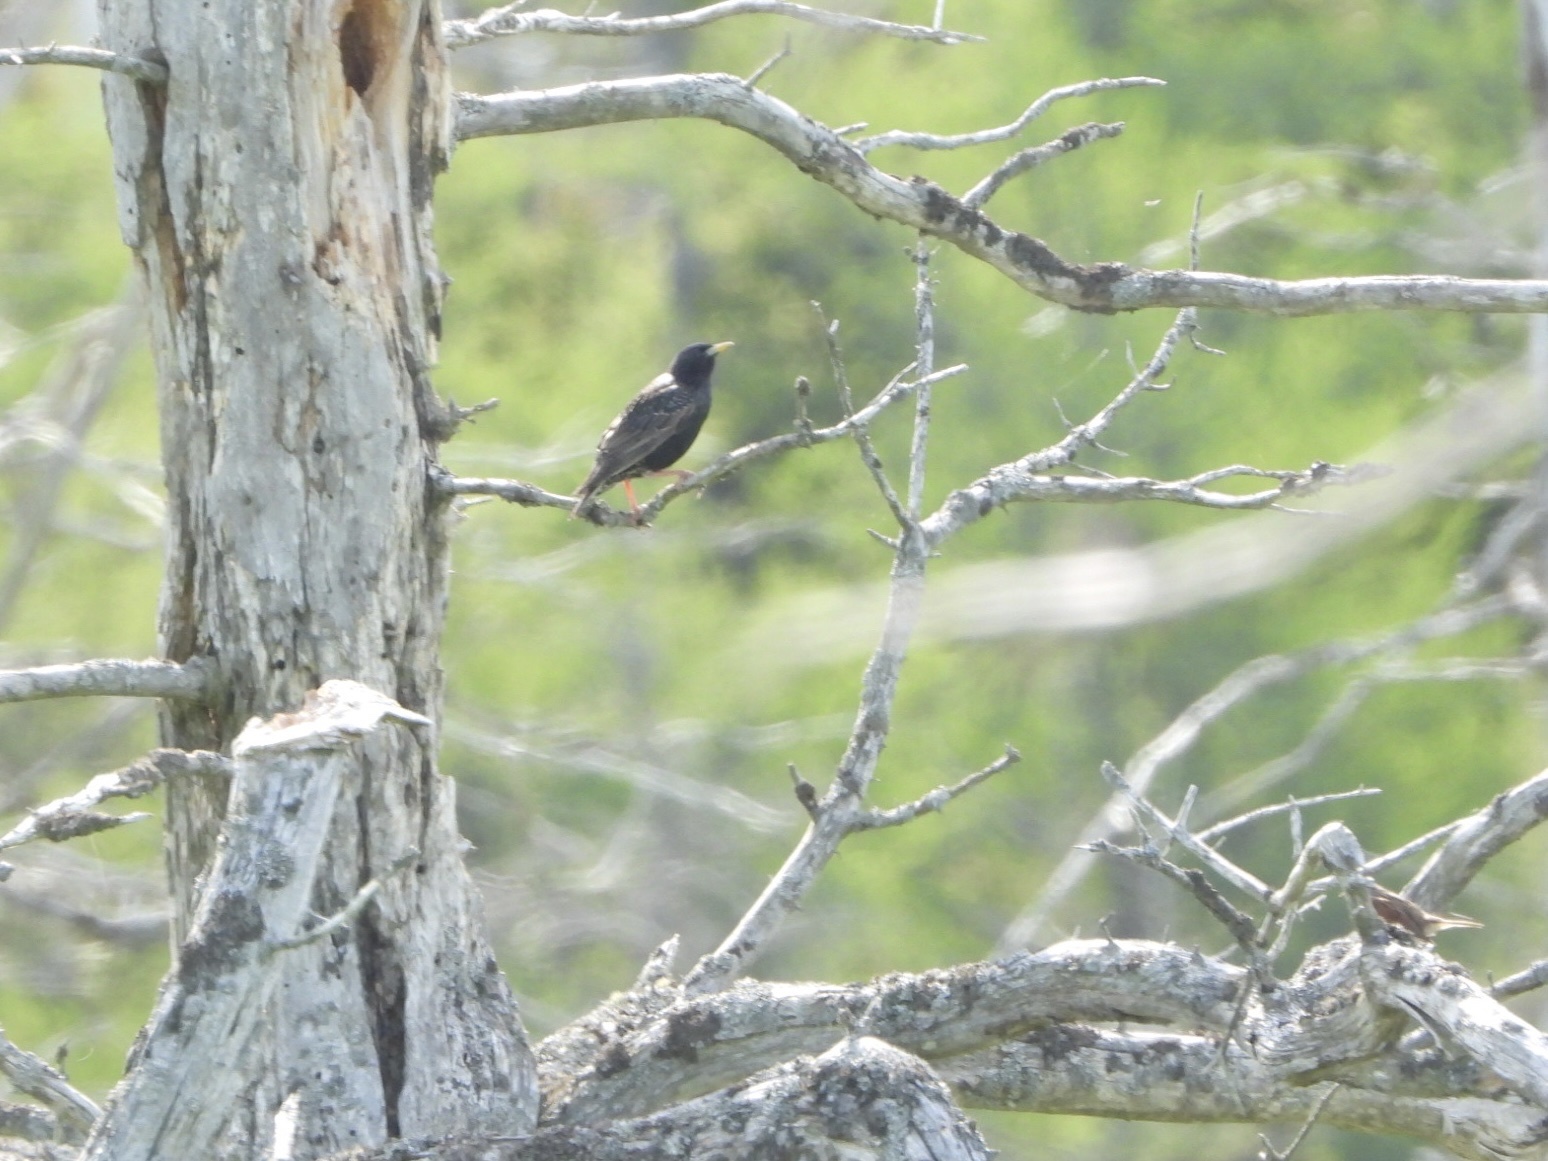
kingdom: Animalia
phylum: Chordata
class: Aves
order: Passeriformes
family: Sturnidae
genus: Sturnus
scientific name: Sturnus vulgaris
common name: Common starling
